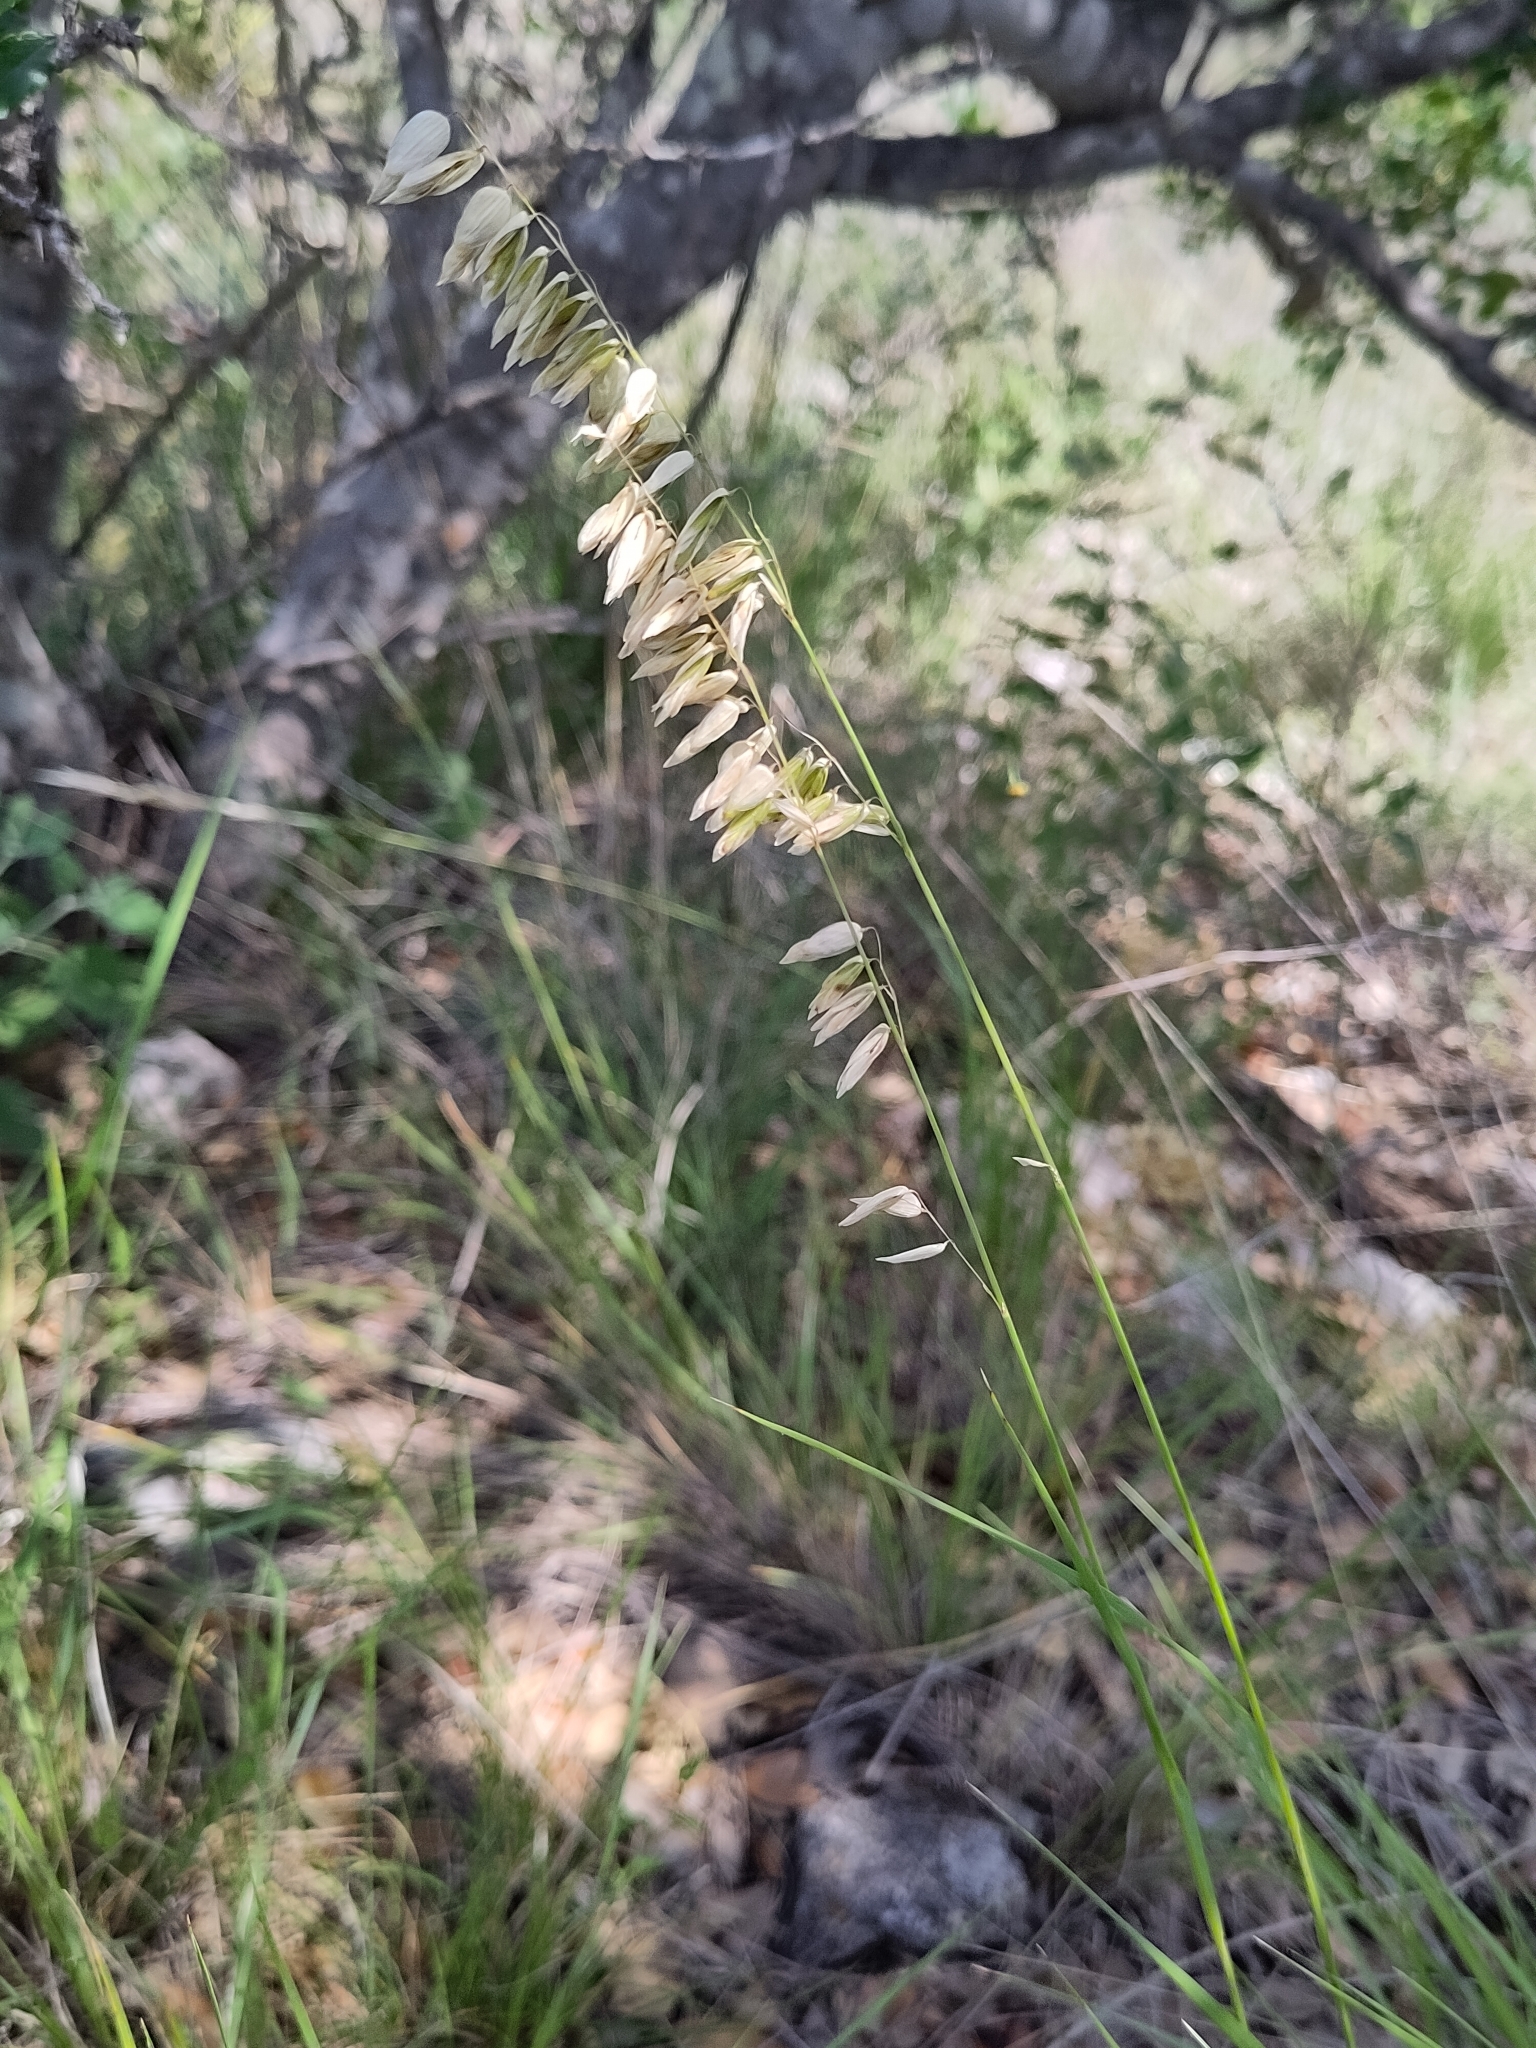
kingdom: Plantae
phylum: Tracheophyta
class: Liliopsida
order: Poales
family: Poaceae
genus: Melica
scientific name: Melica nitens
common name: Three-flower melic
